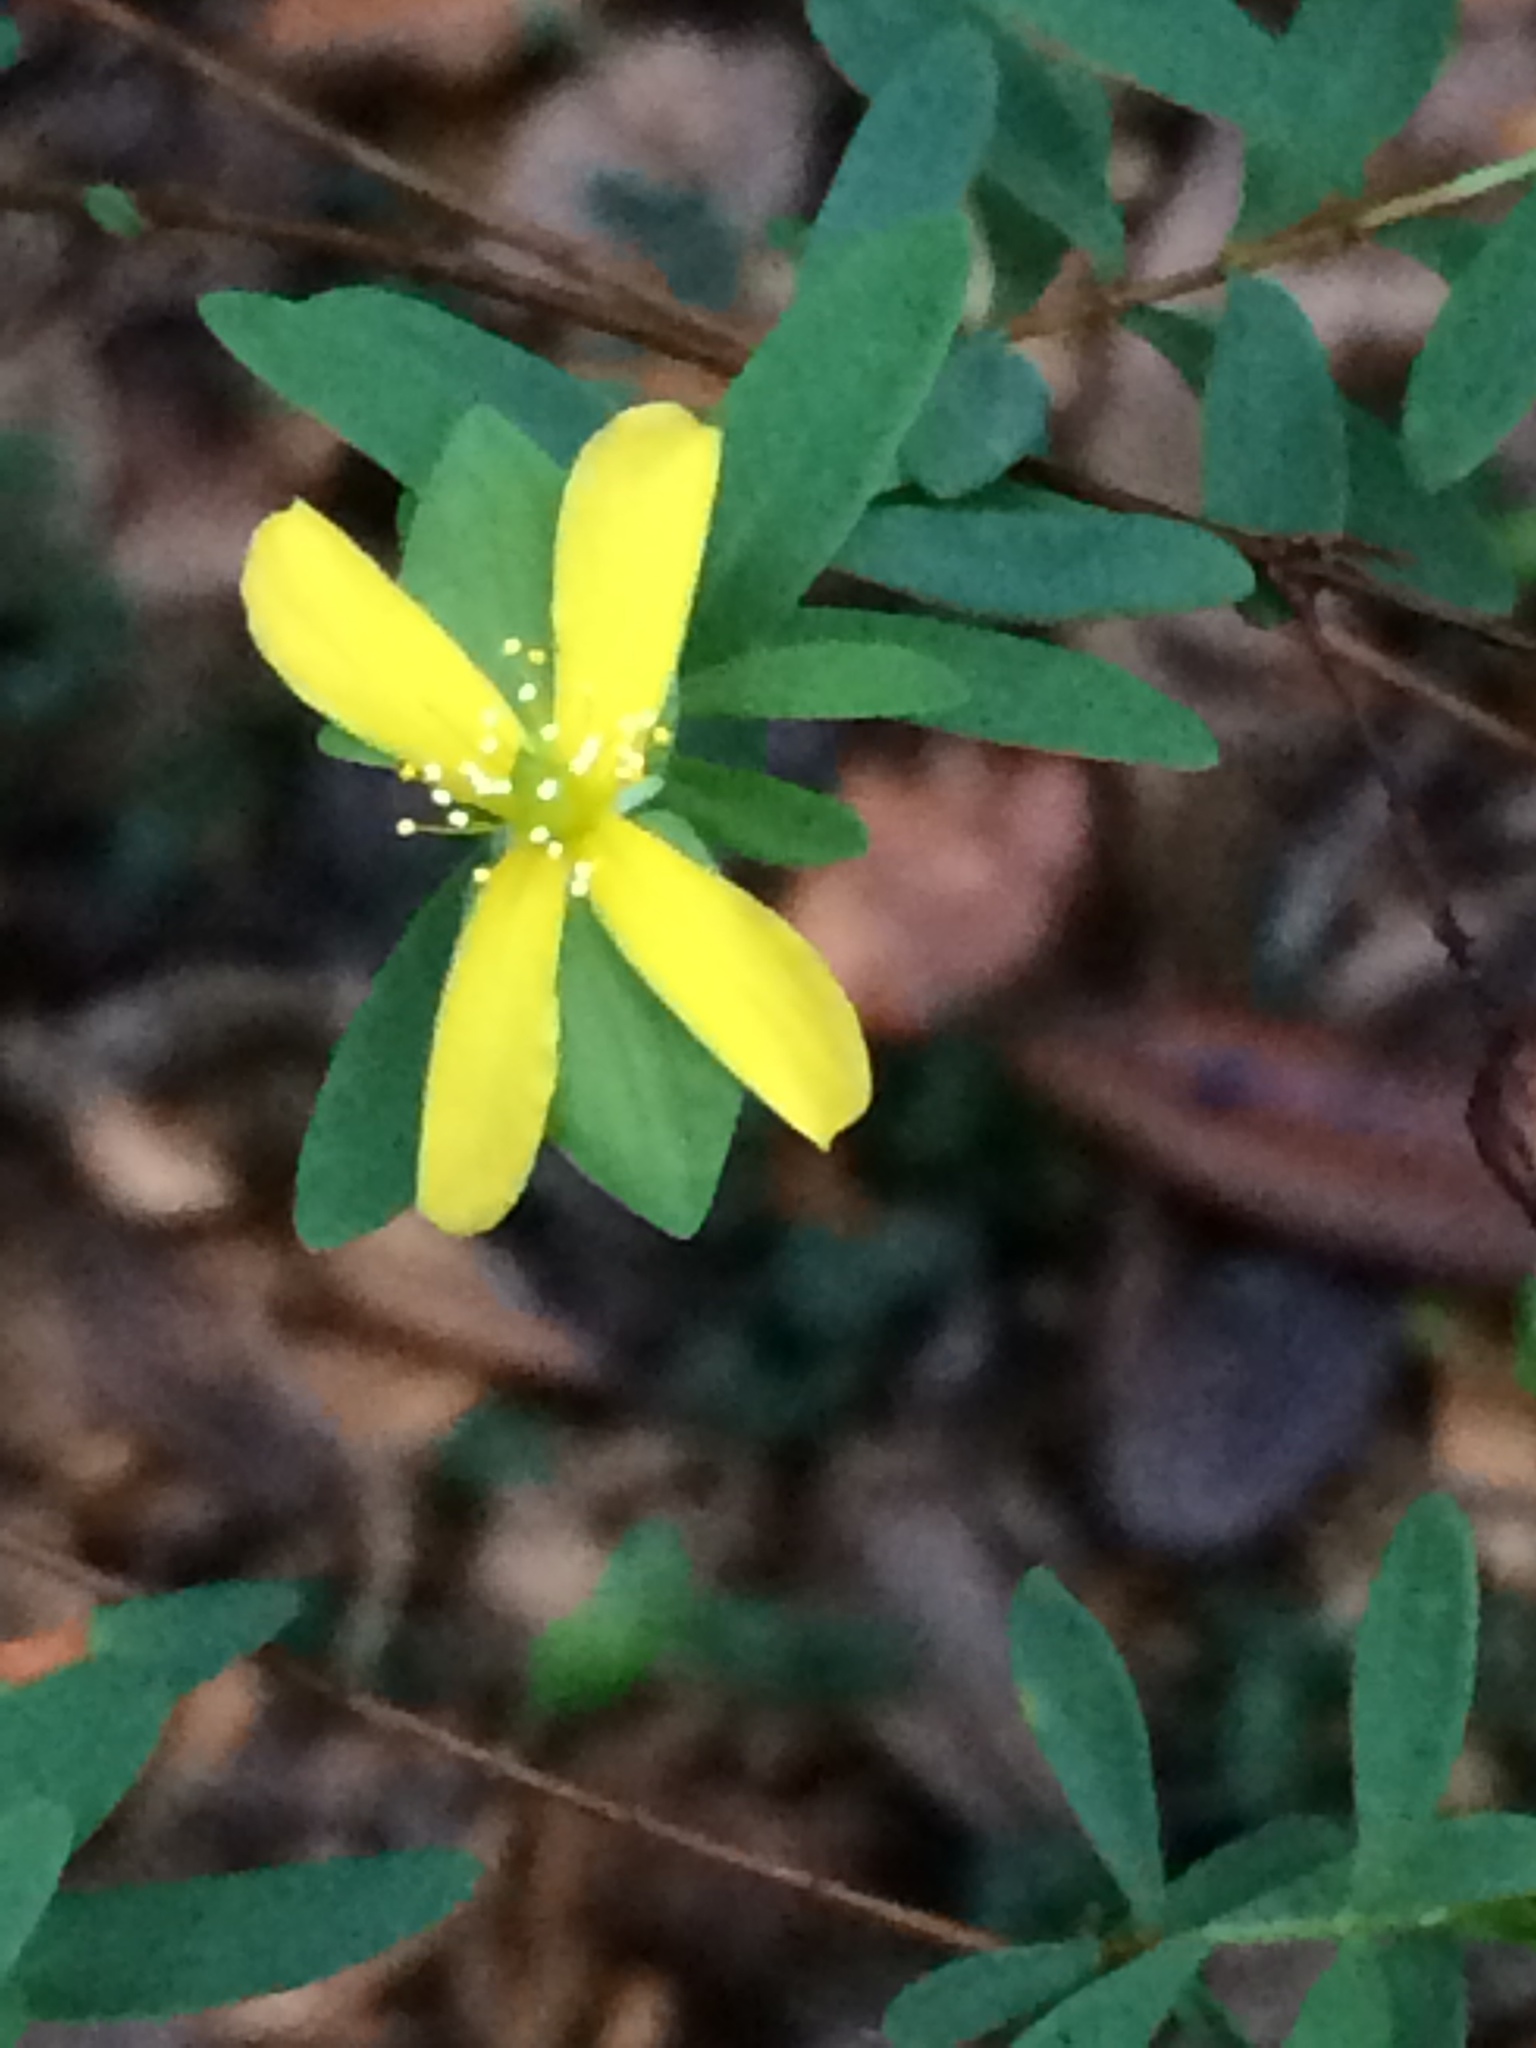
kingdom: Plantae
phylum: Tracheophyta
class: Magnoliopsida
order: Malpighiales
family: Hypericaceae
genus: Hypericum
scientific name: Hypericum hypericoides
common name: St. andrew's cross
